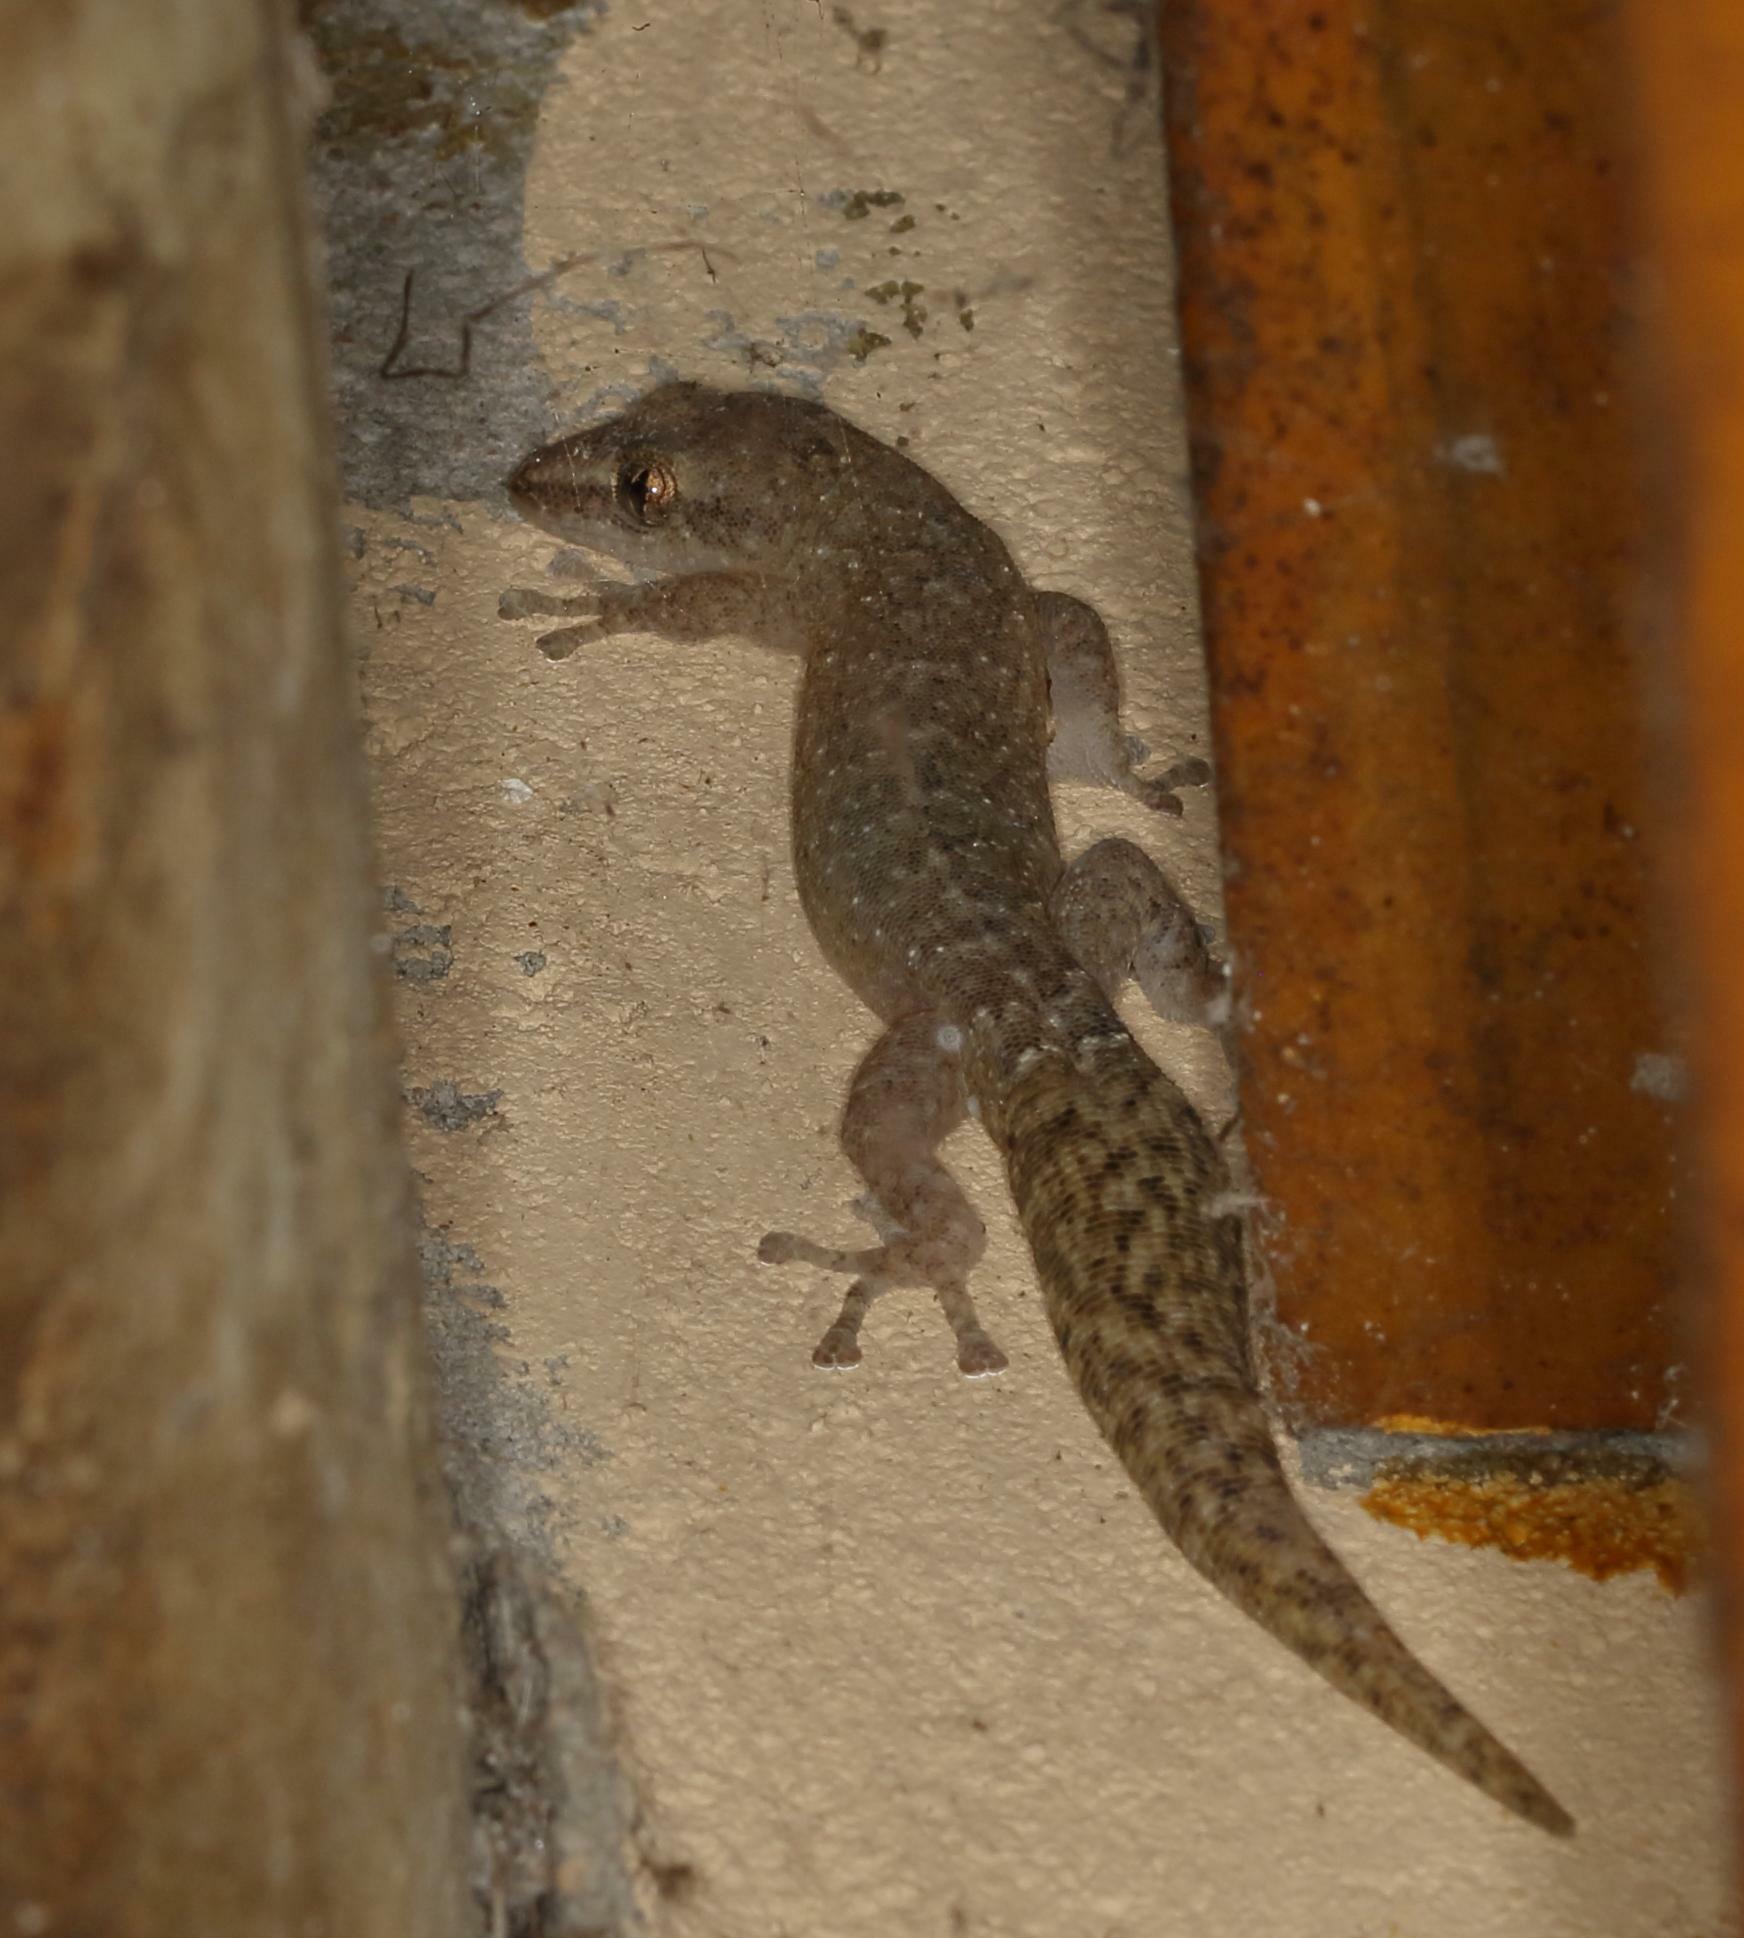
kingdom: Animalia
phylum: Chordata
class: Squamata
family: Gekkonidae
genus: Afrogecko
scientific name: Afrogecko porphyreus
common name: Marbled leaf-toed gecko
